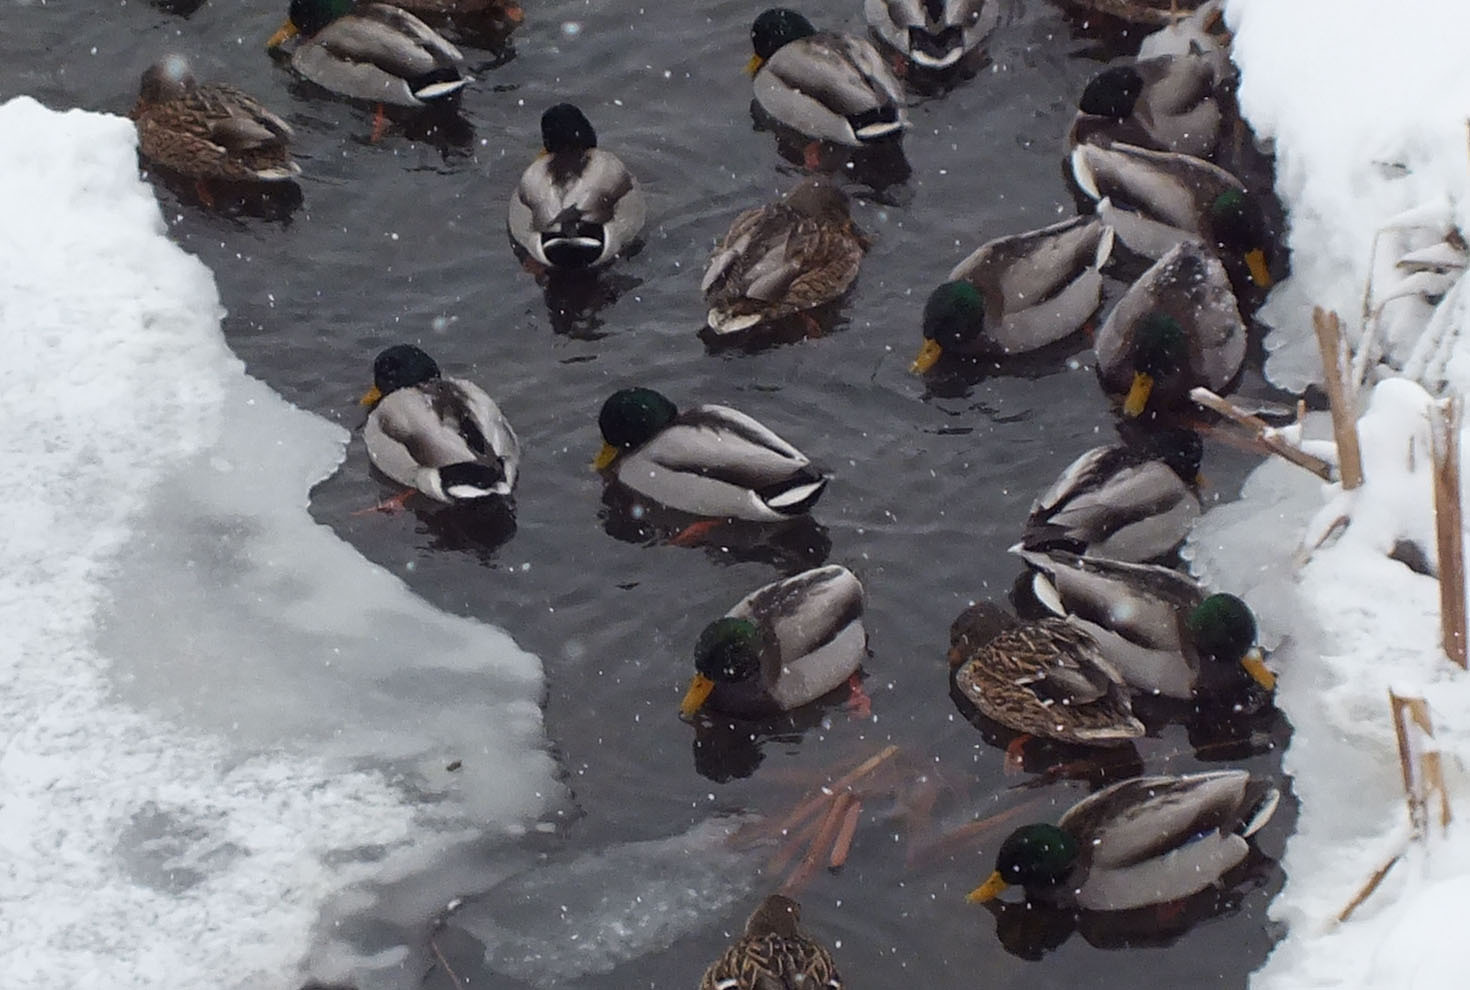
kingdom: Animalia
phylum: Chordata
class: Aves
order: Anseriformes
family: Anatidae
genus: Anas
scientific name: Anas platyrhynchos
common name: Mallard
